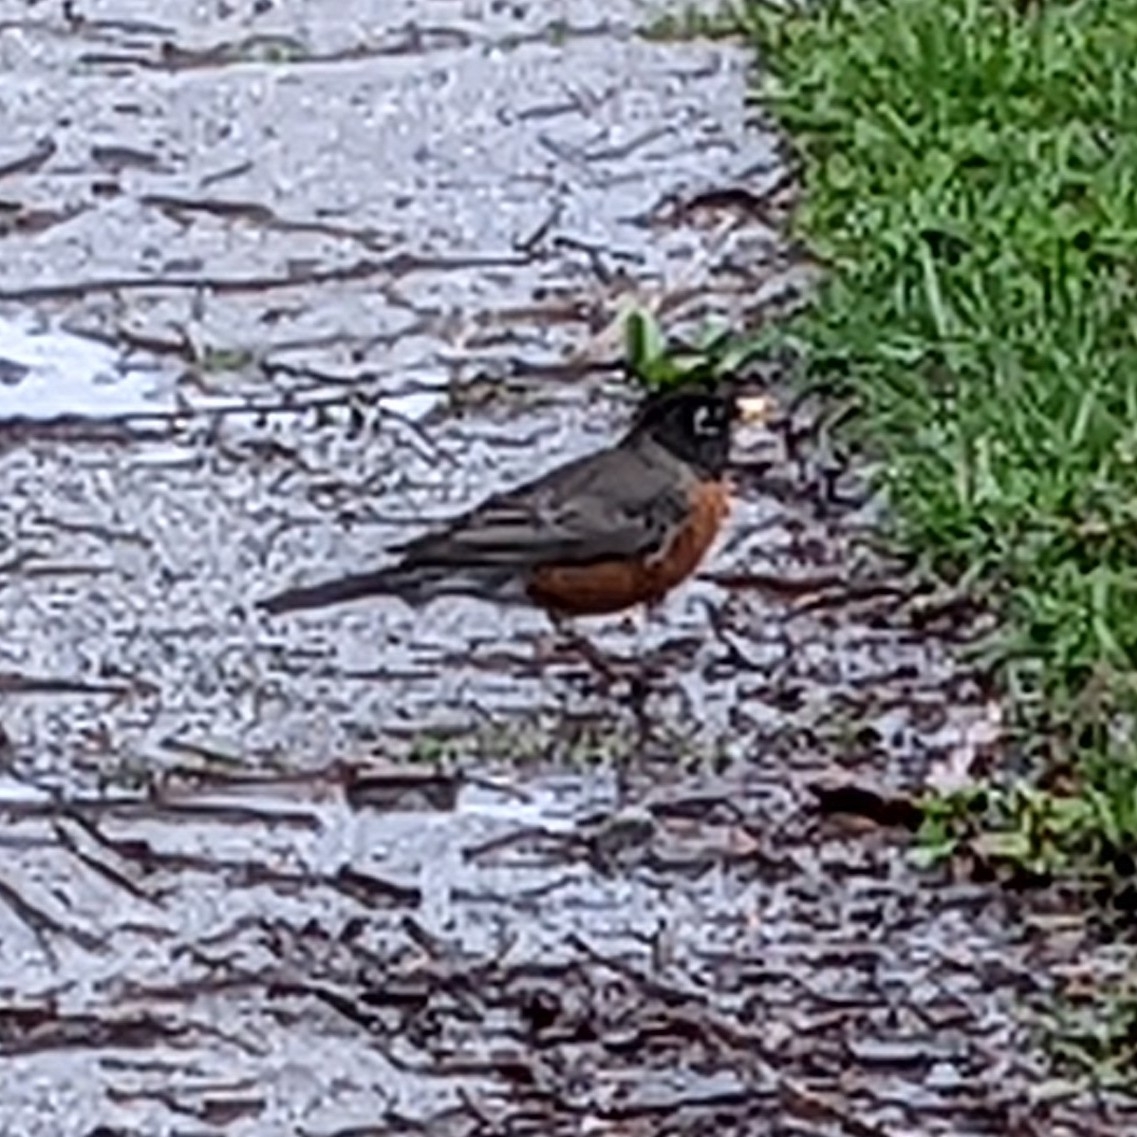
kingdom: Animalia
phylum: Chordata
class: Aves
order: Passeriformes
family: Turdidae
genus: Turdus
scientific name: Turdus migratorius
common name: American robin
